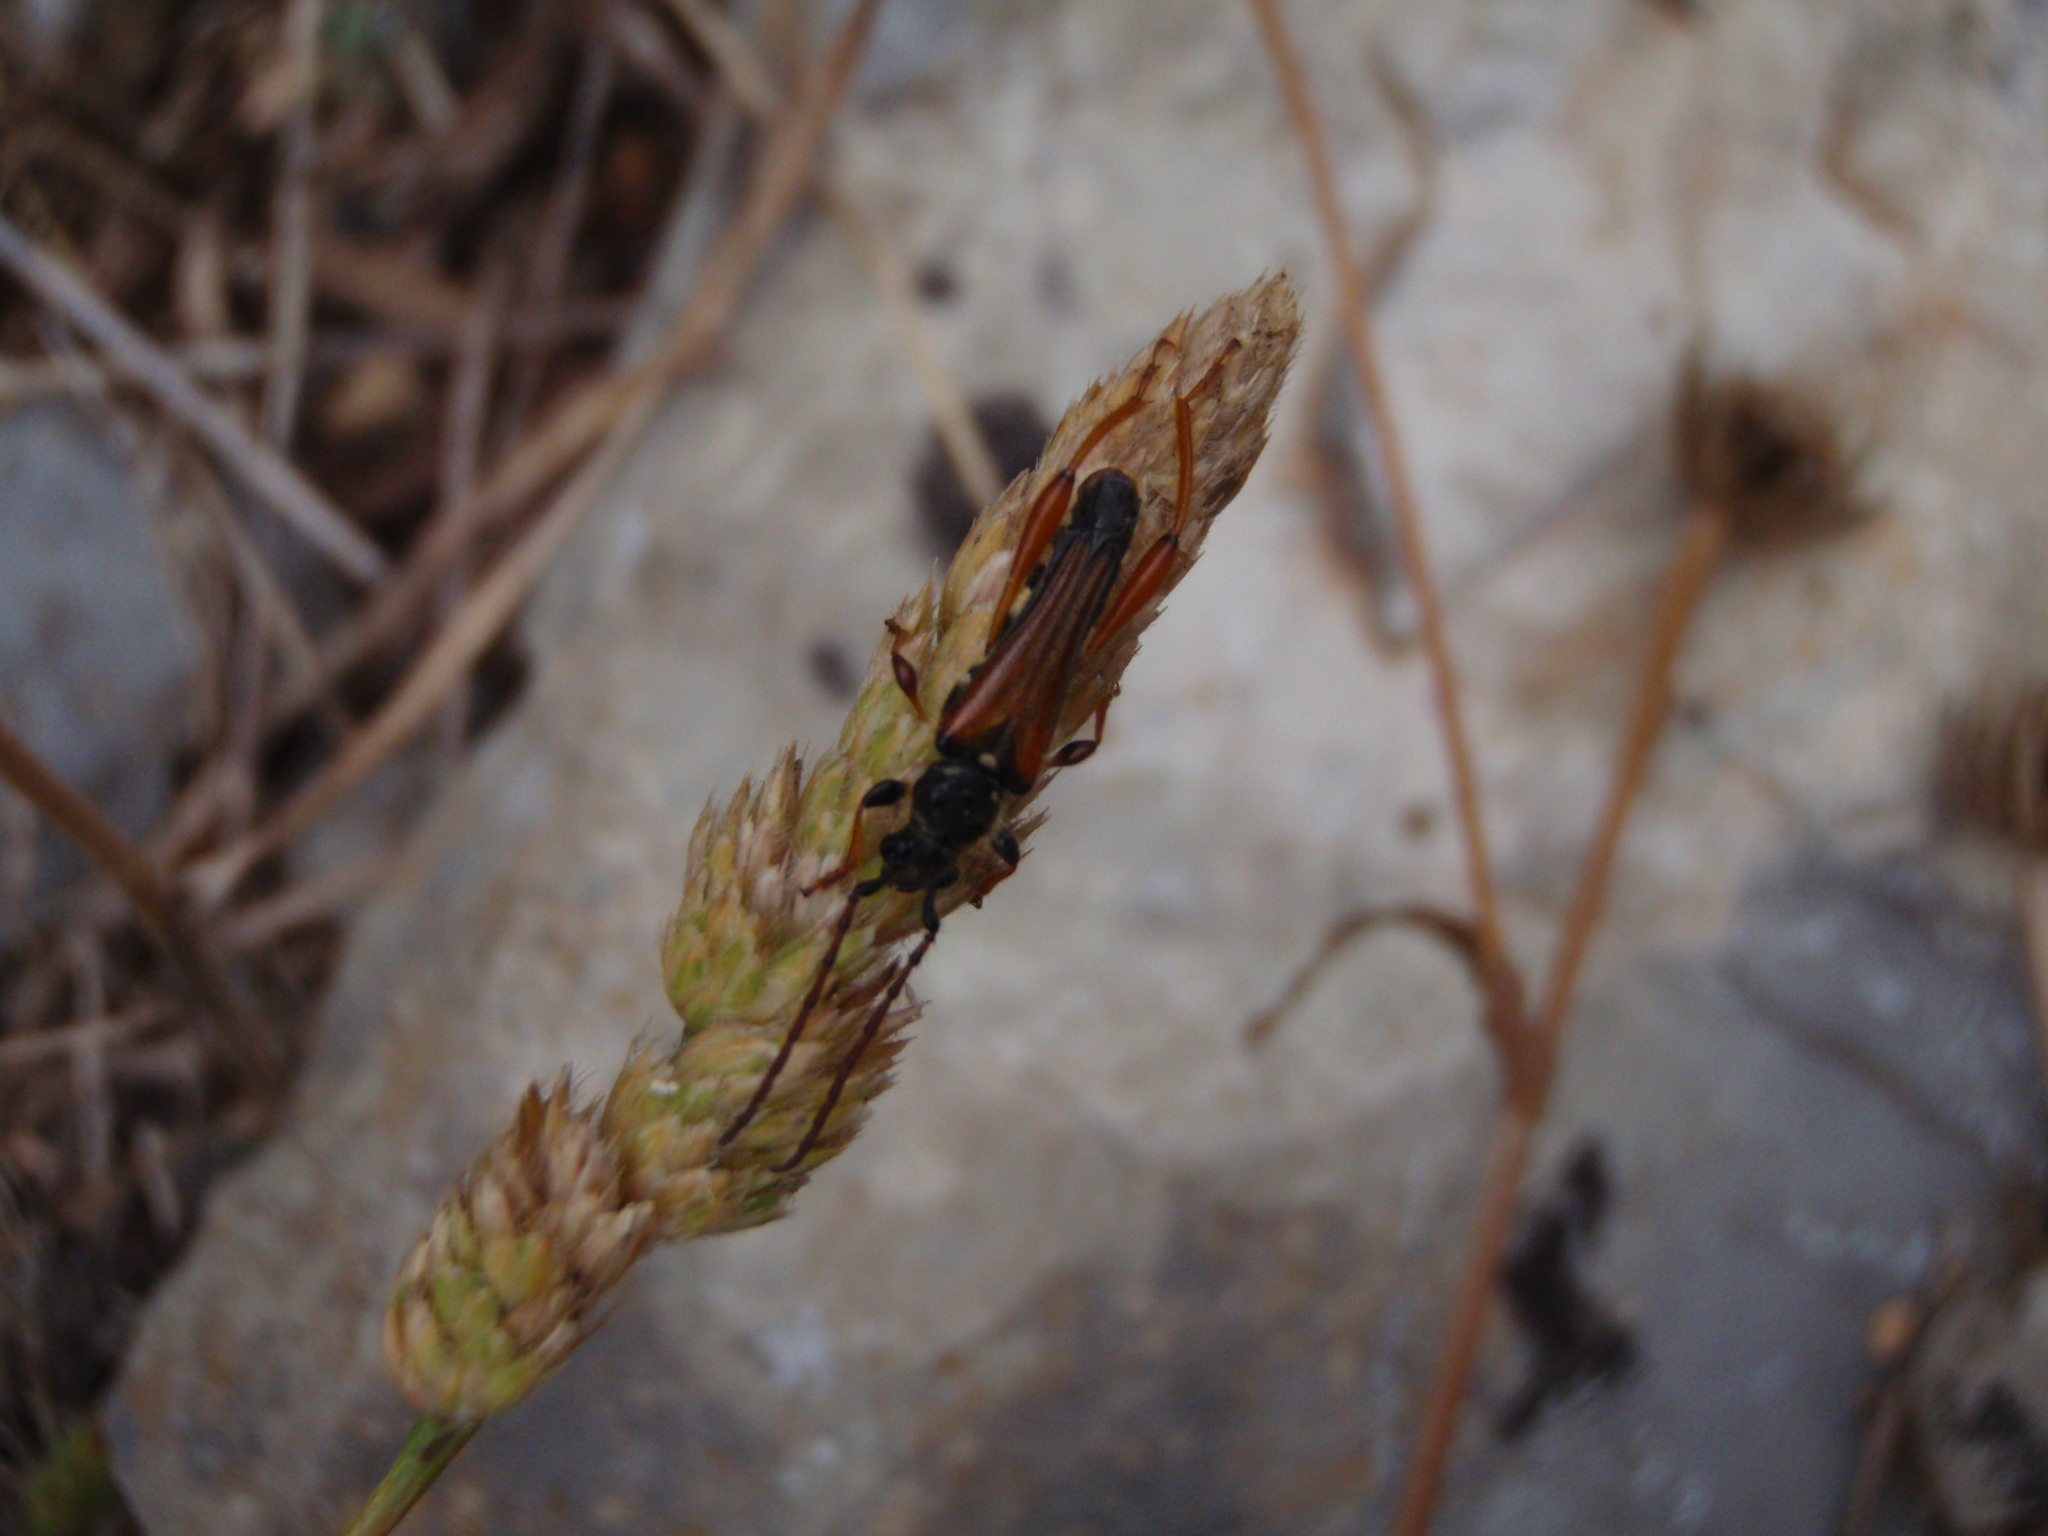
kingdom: Animalia
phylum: Arthropoda
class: Insecta
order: Coleoptera
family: Cerambycidae
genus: Stenopterus
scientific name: Stenopterus rufus
